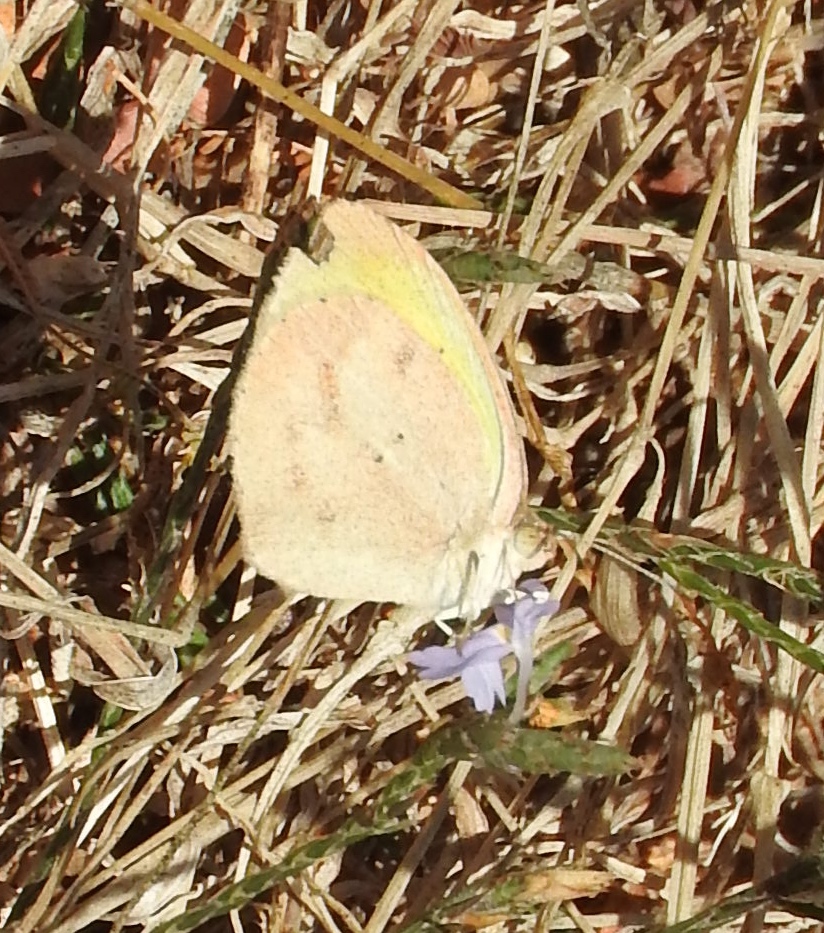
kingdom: Animalia
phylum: Arthropoda
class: Insecta
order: Lepidoptera
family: Pieridae
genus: Eurema
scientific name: Eurema daira
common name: Barred sulphur
